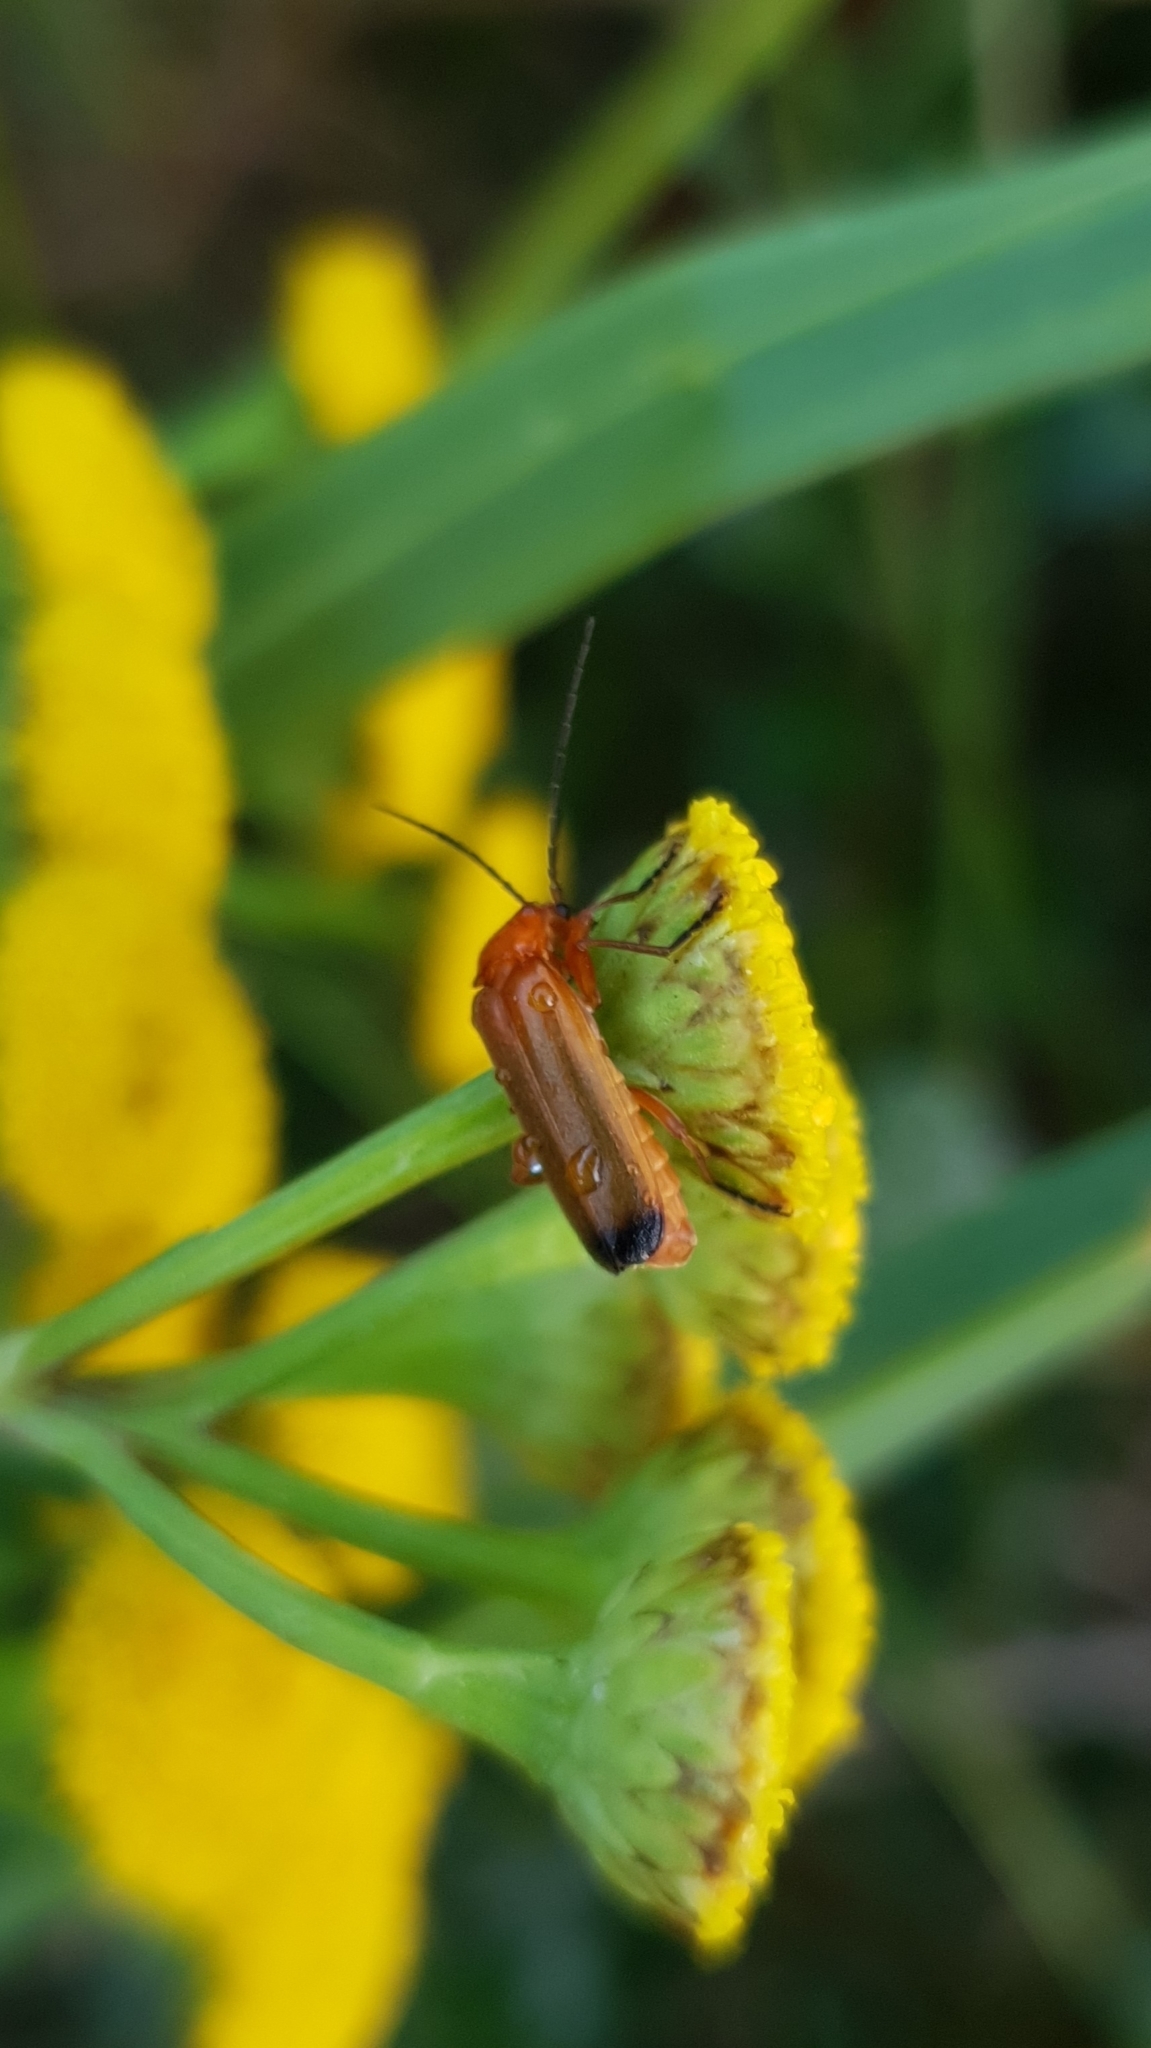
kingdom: Animalia
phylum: Arthropoda
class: Insecta
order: Coleoptera
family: Cantharidae
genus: Rhagonycha
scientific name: Rhagonycha fulva
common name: Common red soldier beetle
